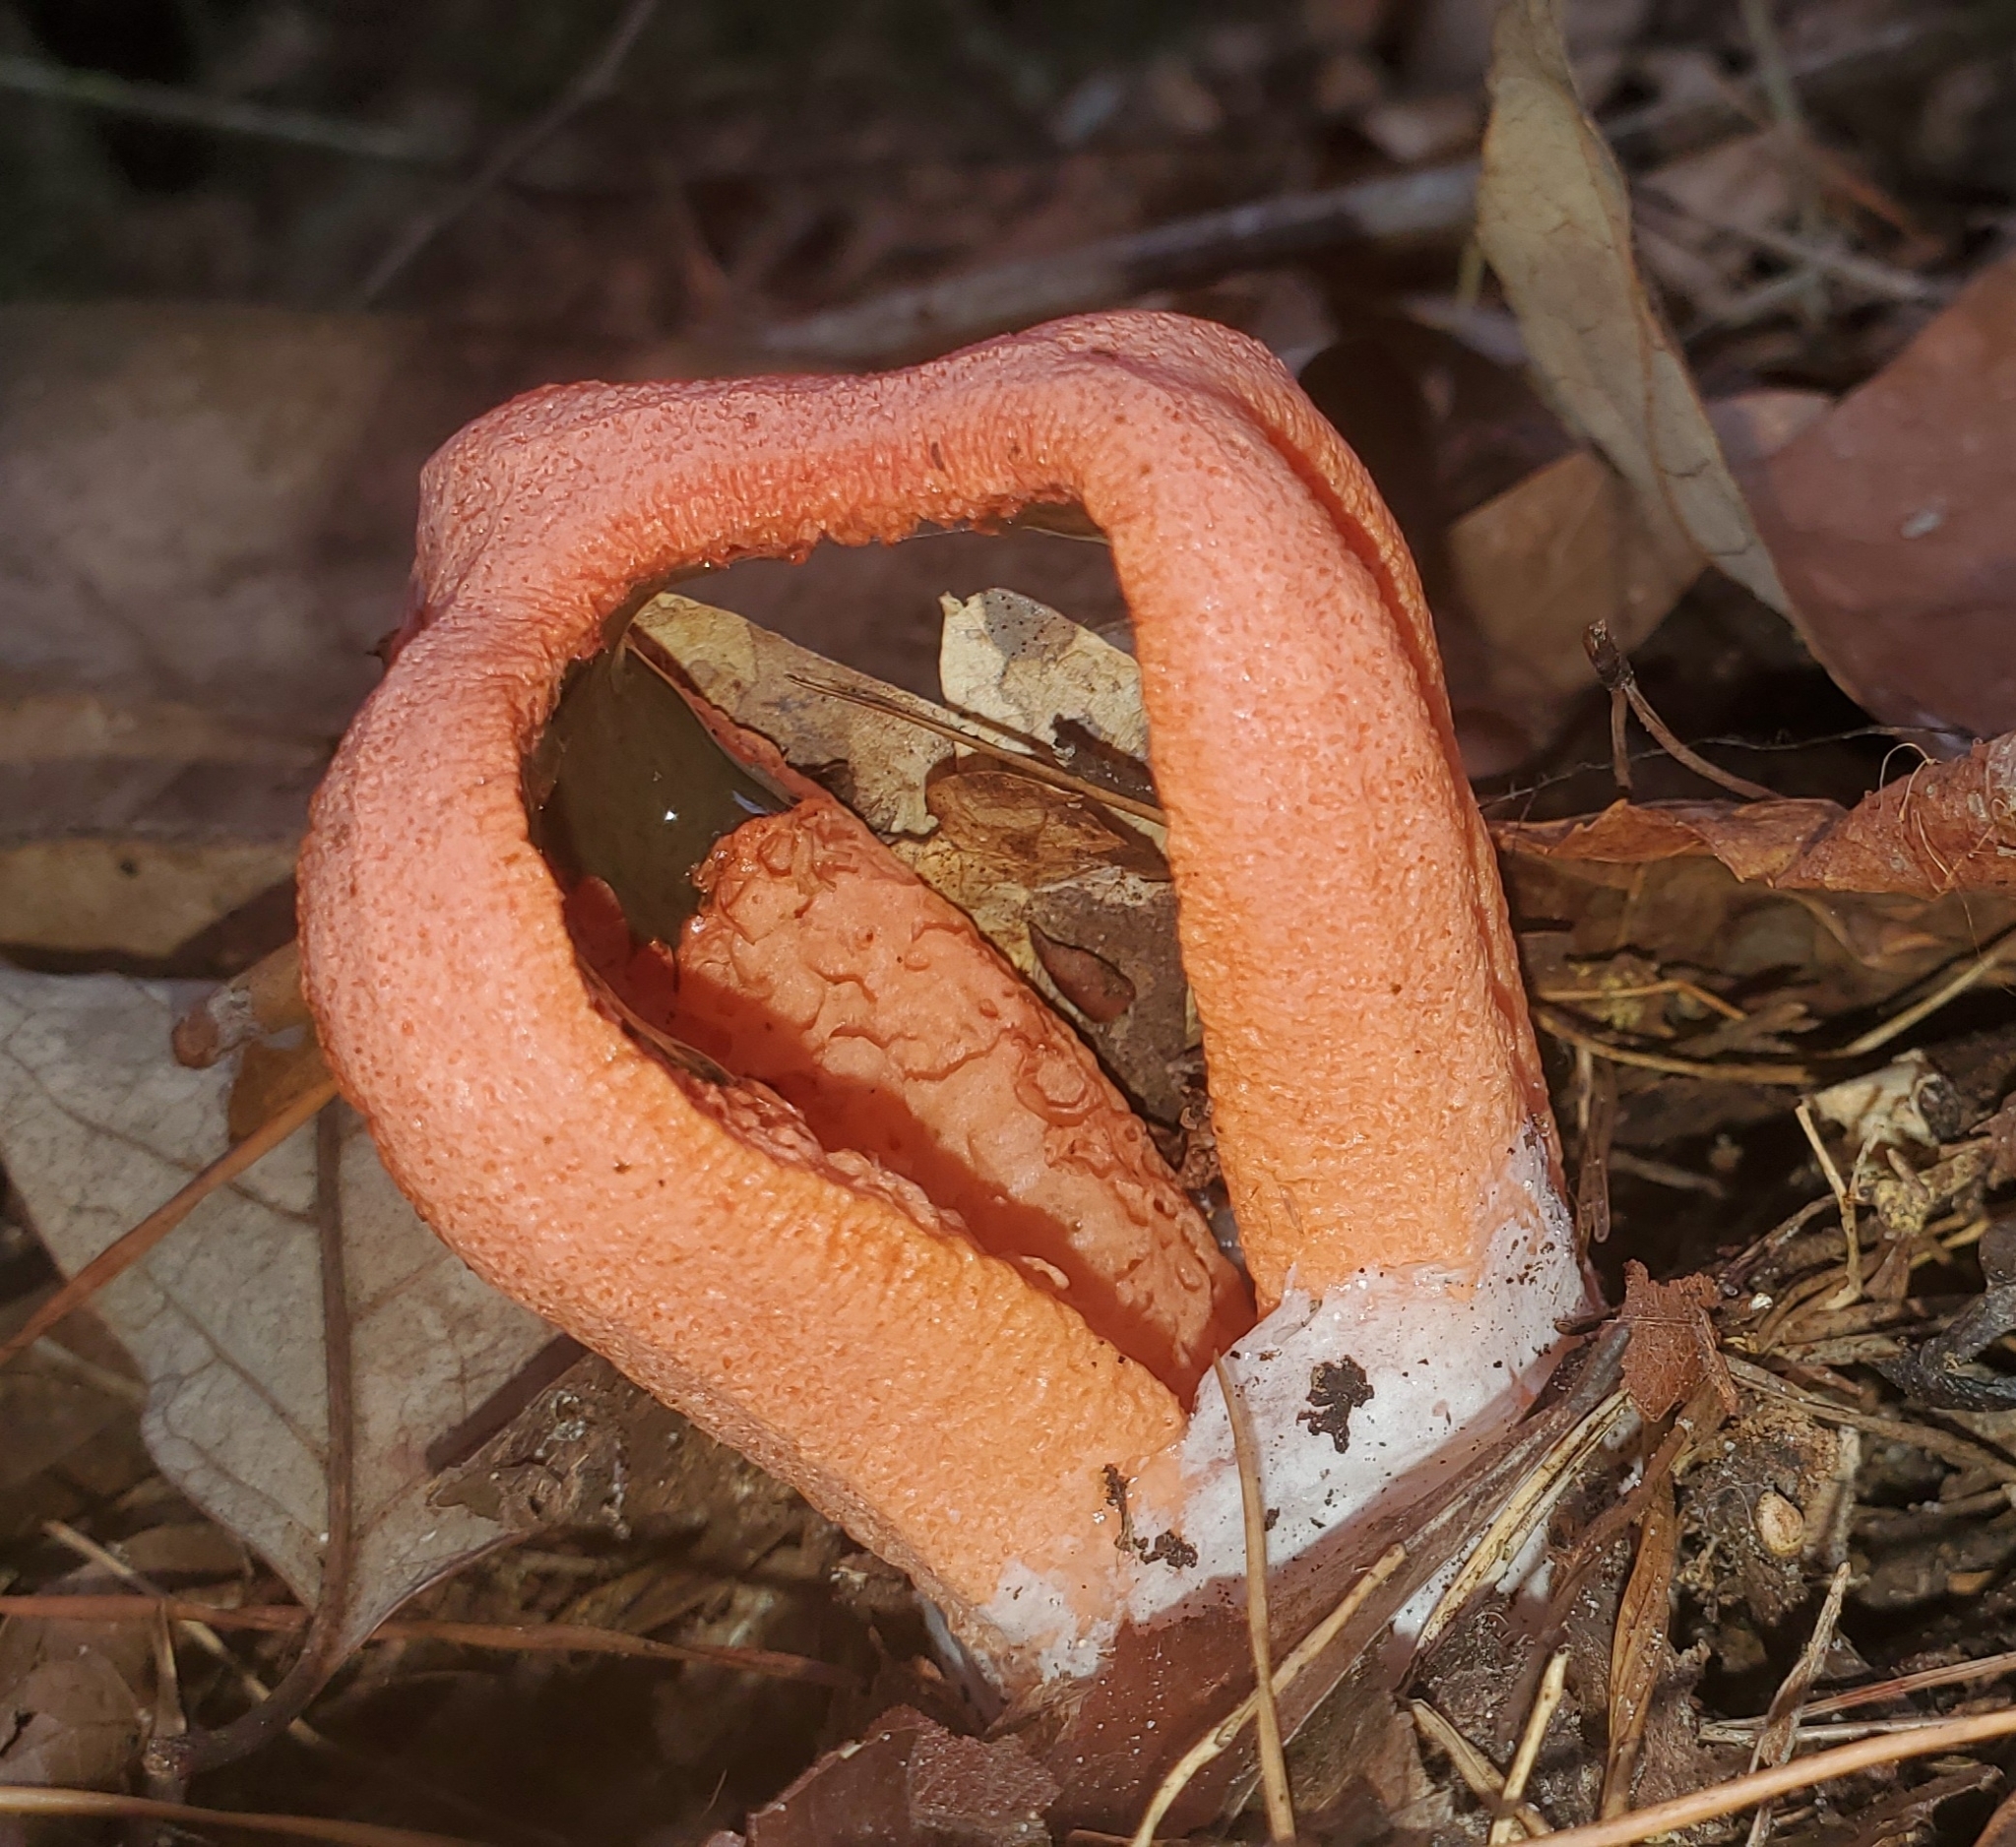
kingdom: Fungi
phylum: Basidiomycota
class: Agaricomycetes
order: Phallales
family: Phallaceae
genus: Clathrus
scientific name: Clathrus columnatus
